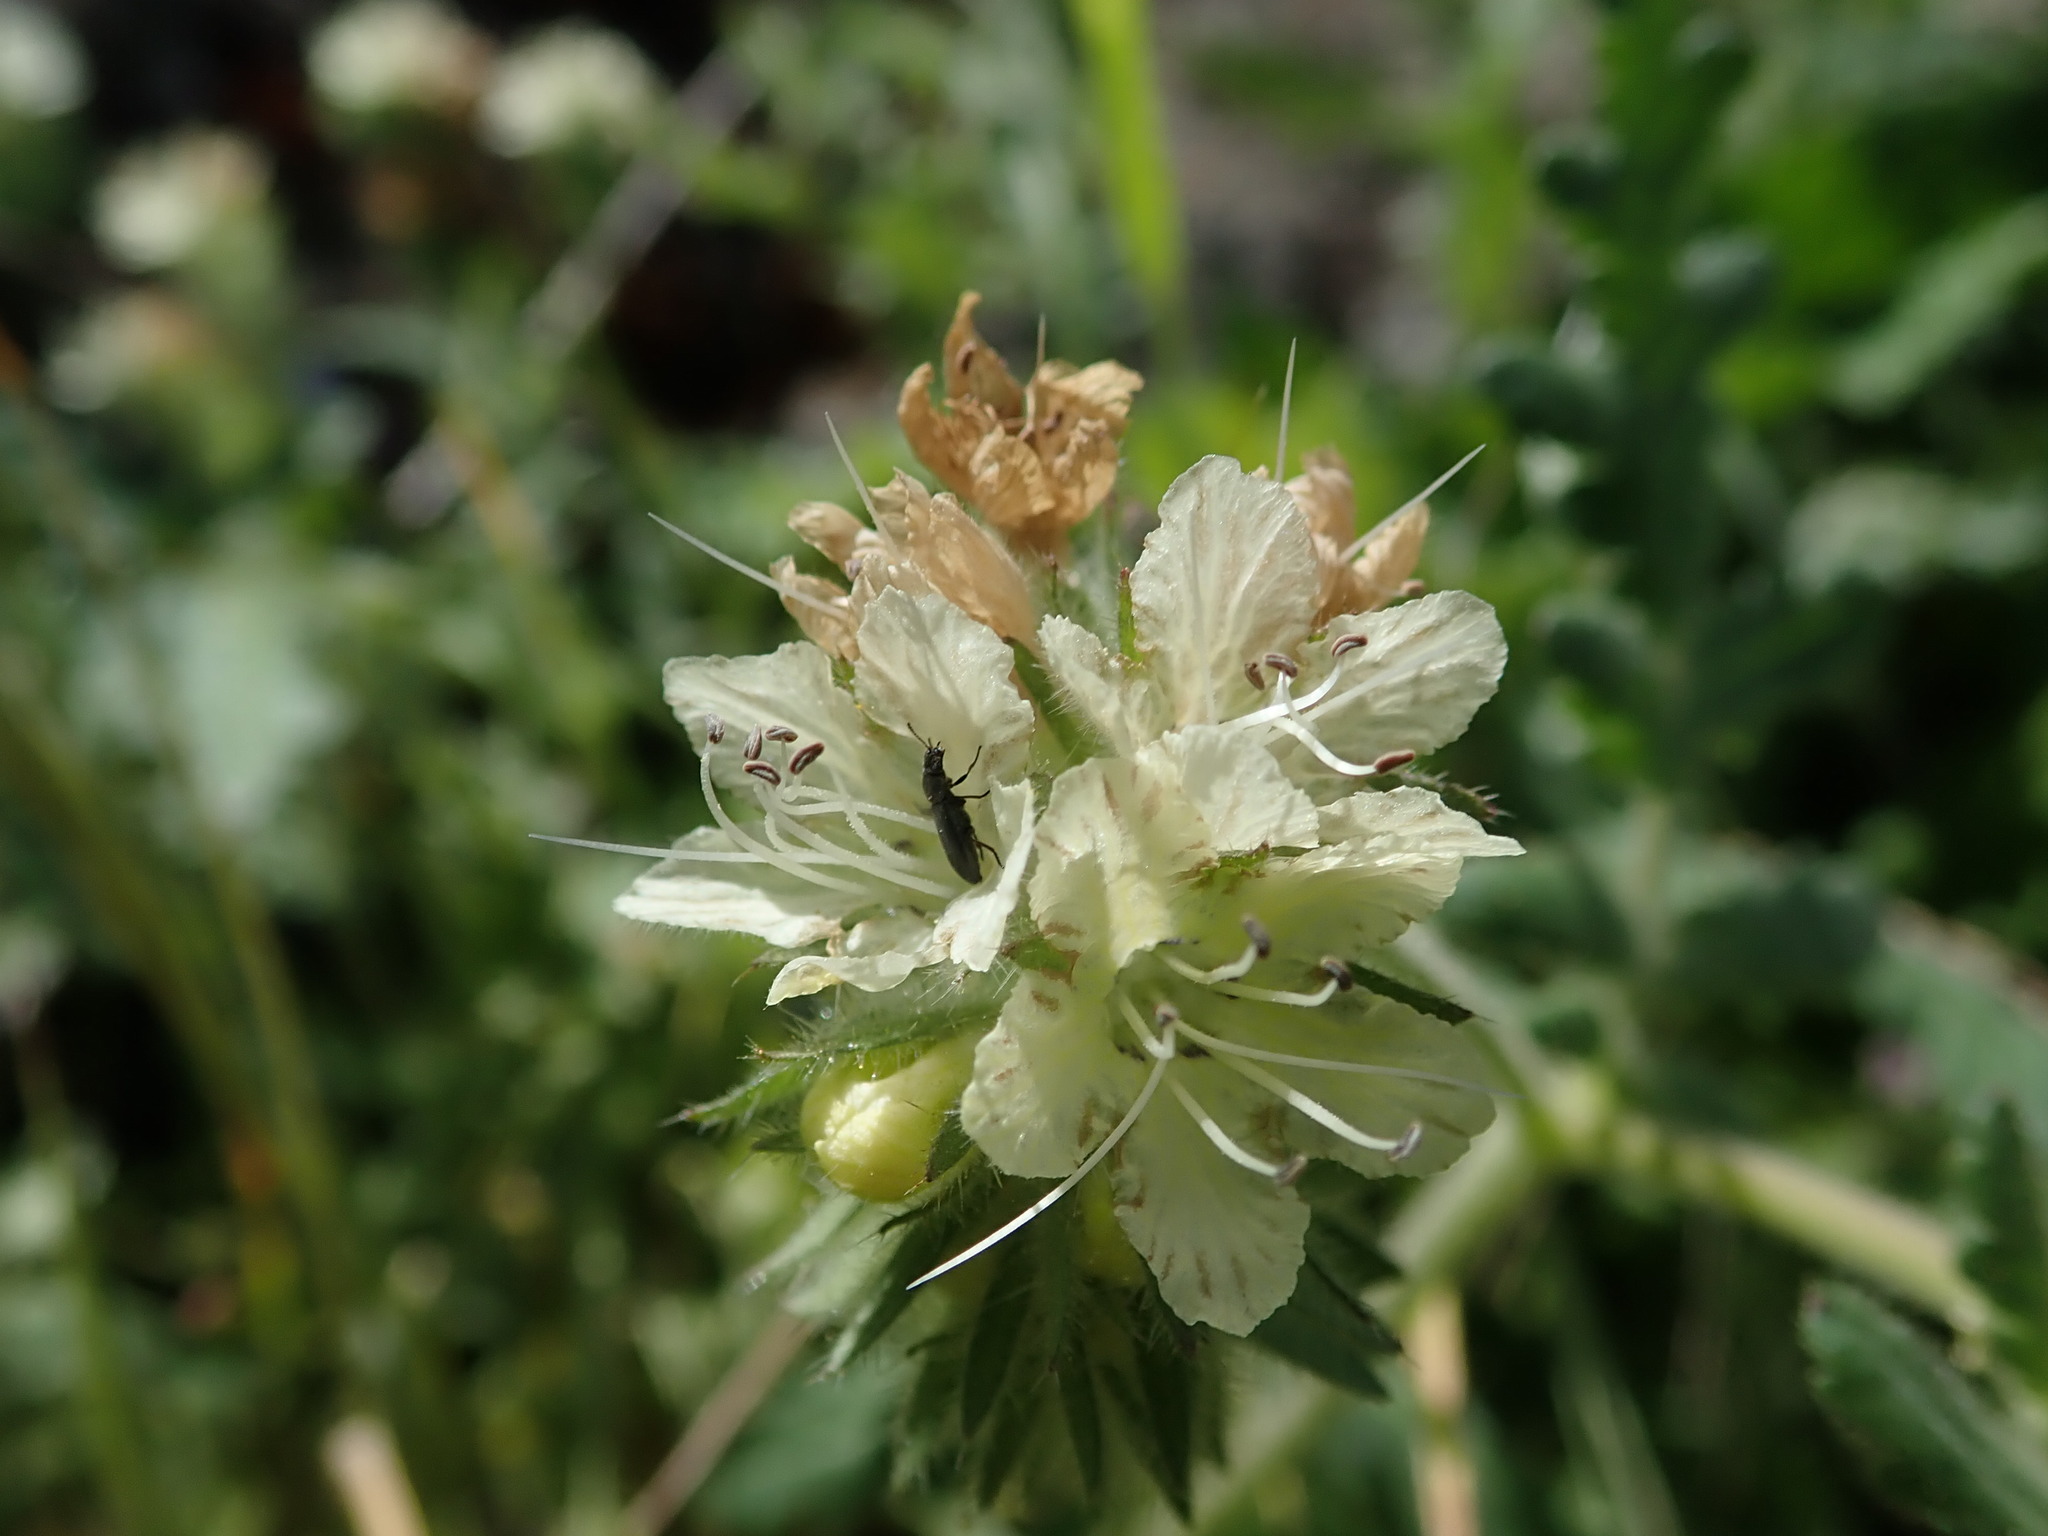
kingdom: Plantae
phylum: Tracheophyta
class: Magnoliopsida
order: Boraginales
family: Hydrophyllaceae
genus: Phacelia
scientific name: Phacelia distans
